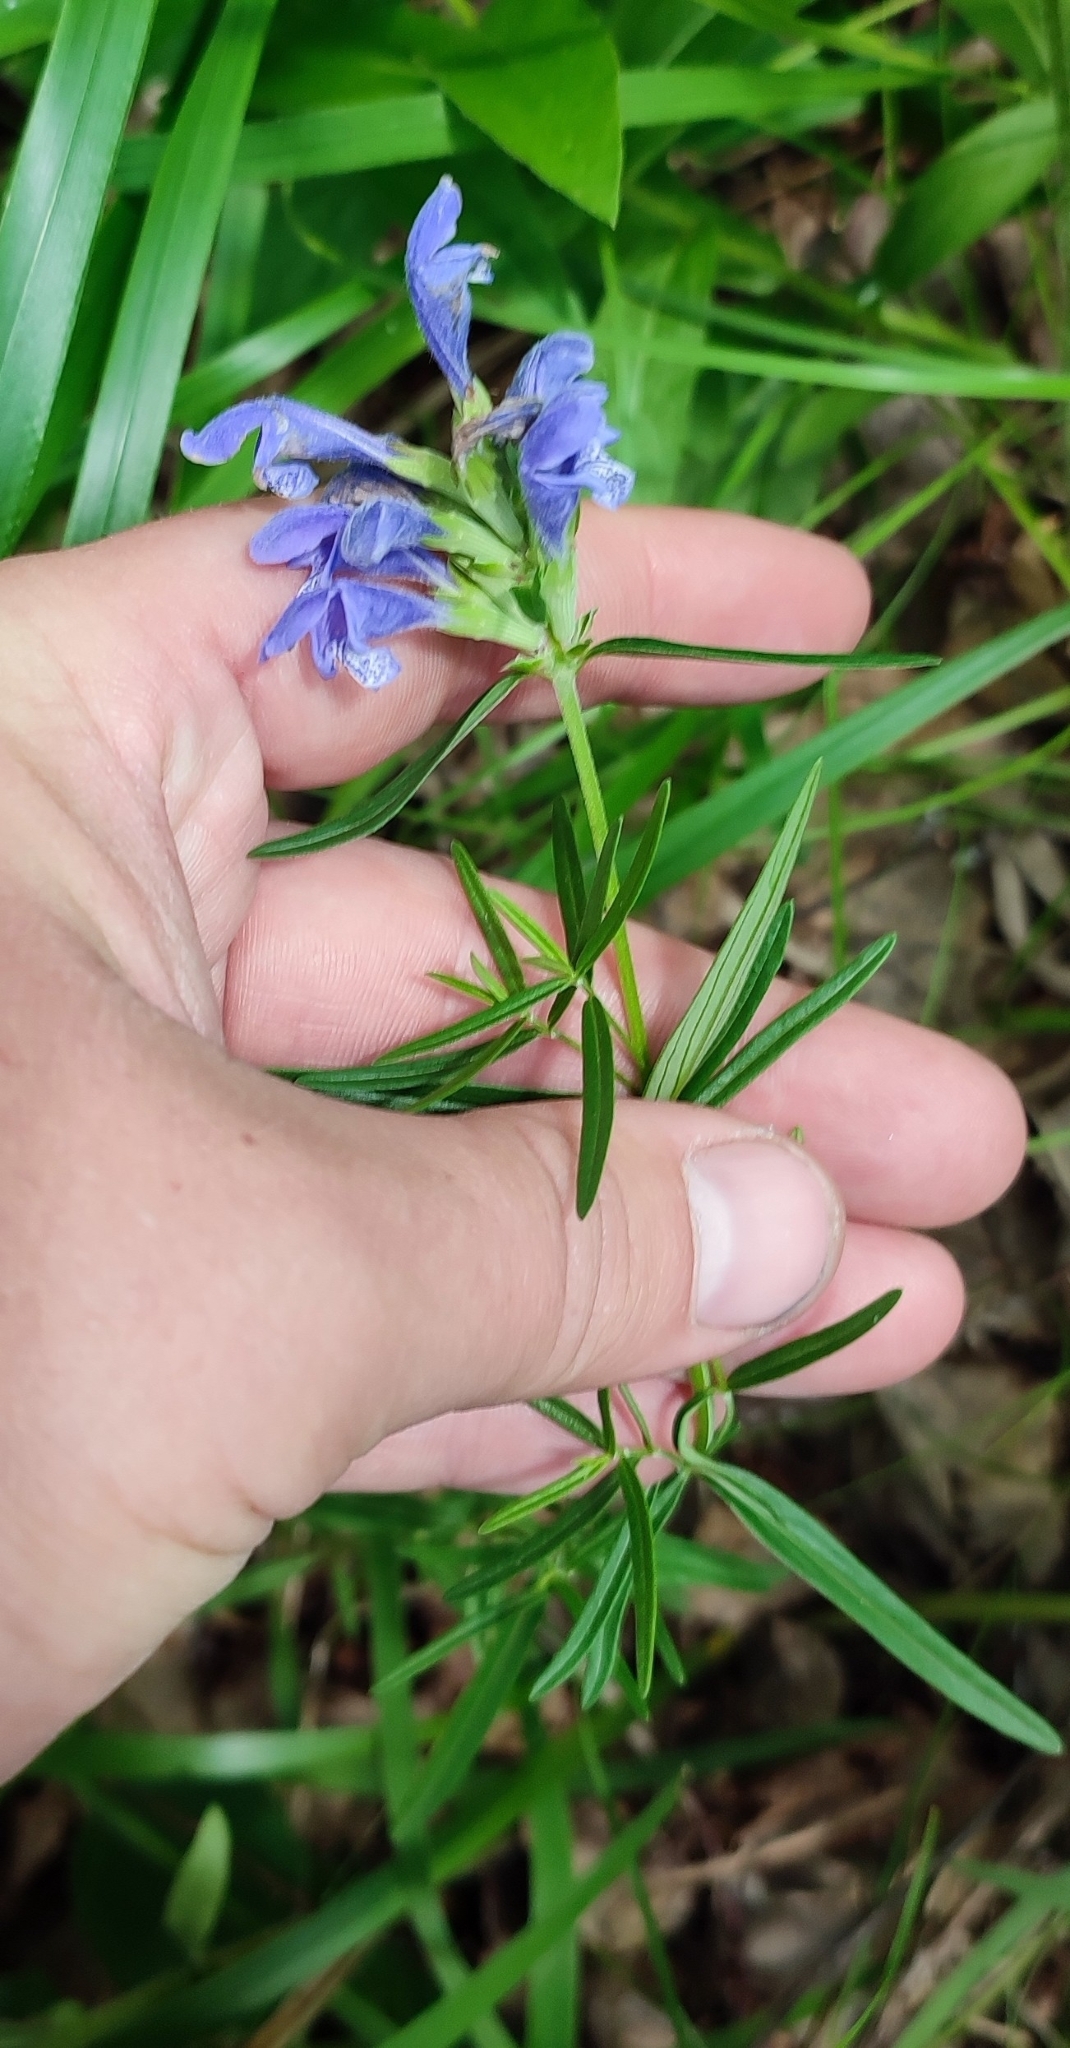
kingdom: Plantae
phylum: Tracheophyta
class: Magnoliopsida
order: Lamiales
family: Lamiaceae
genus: Dracocephalum
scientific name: Dracocephalum ruyschiana
